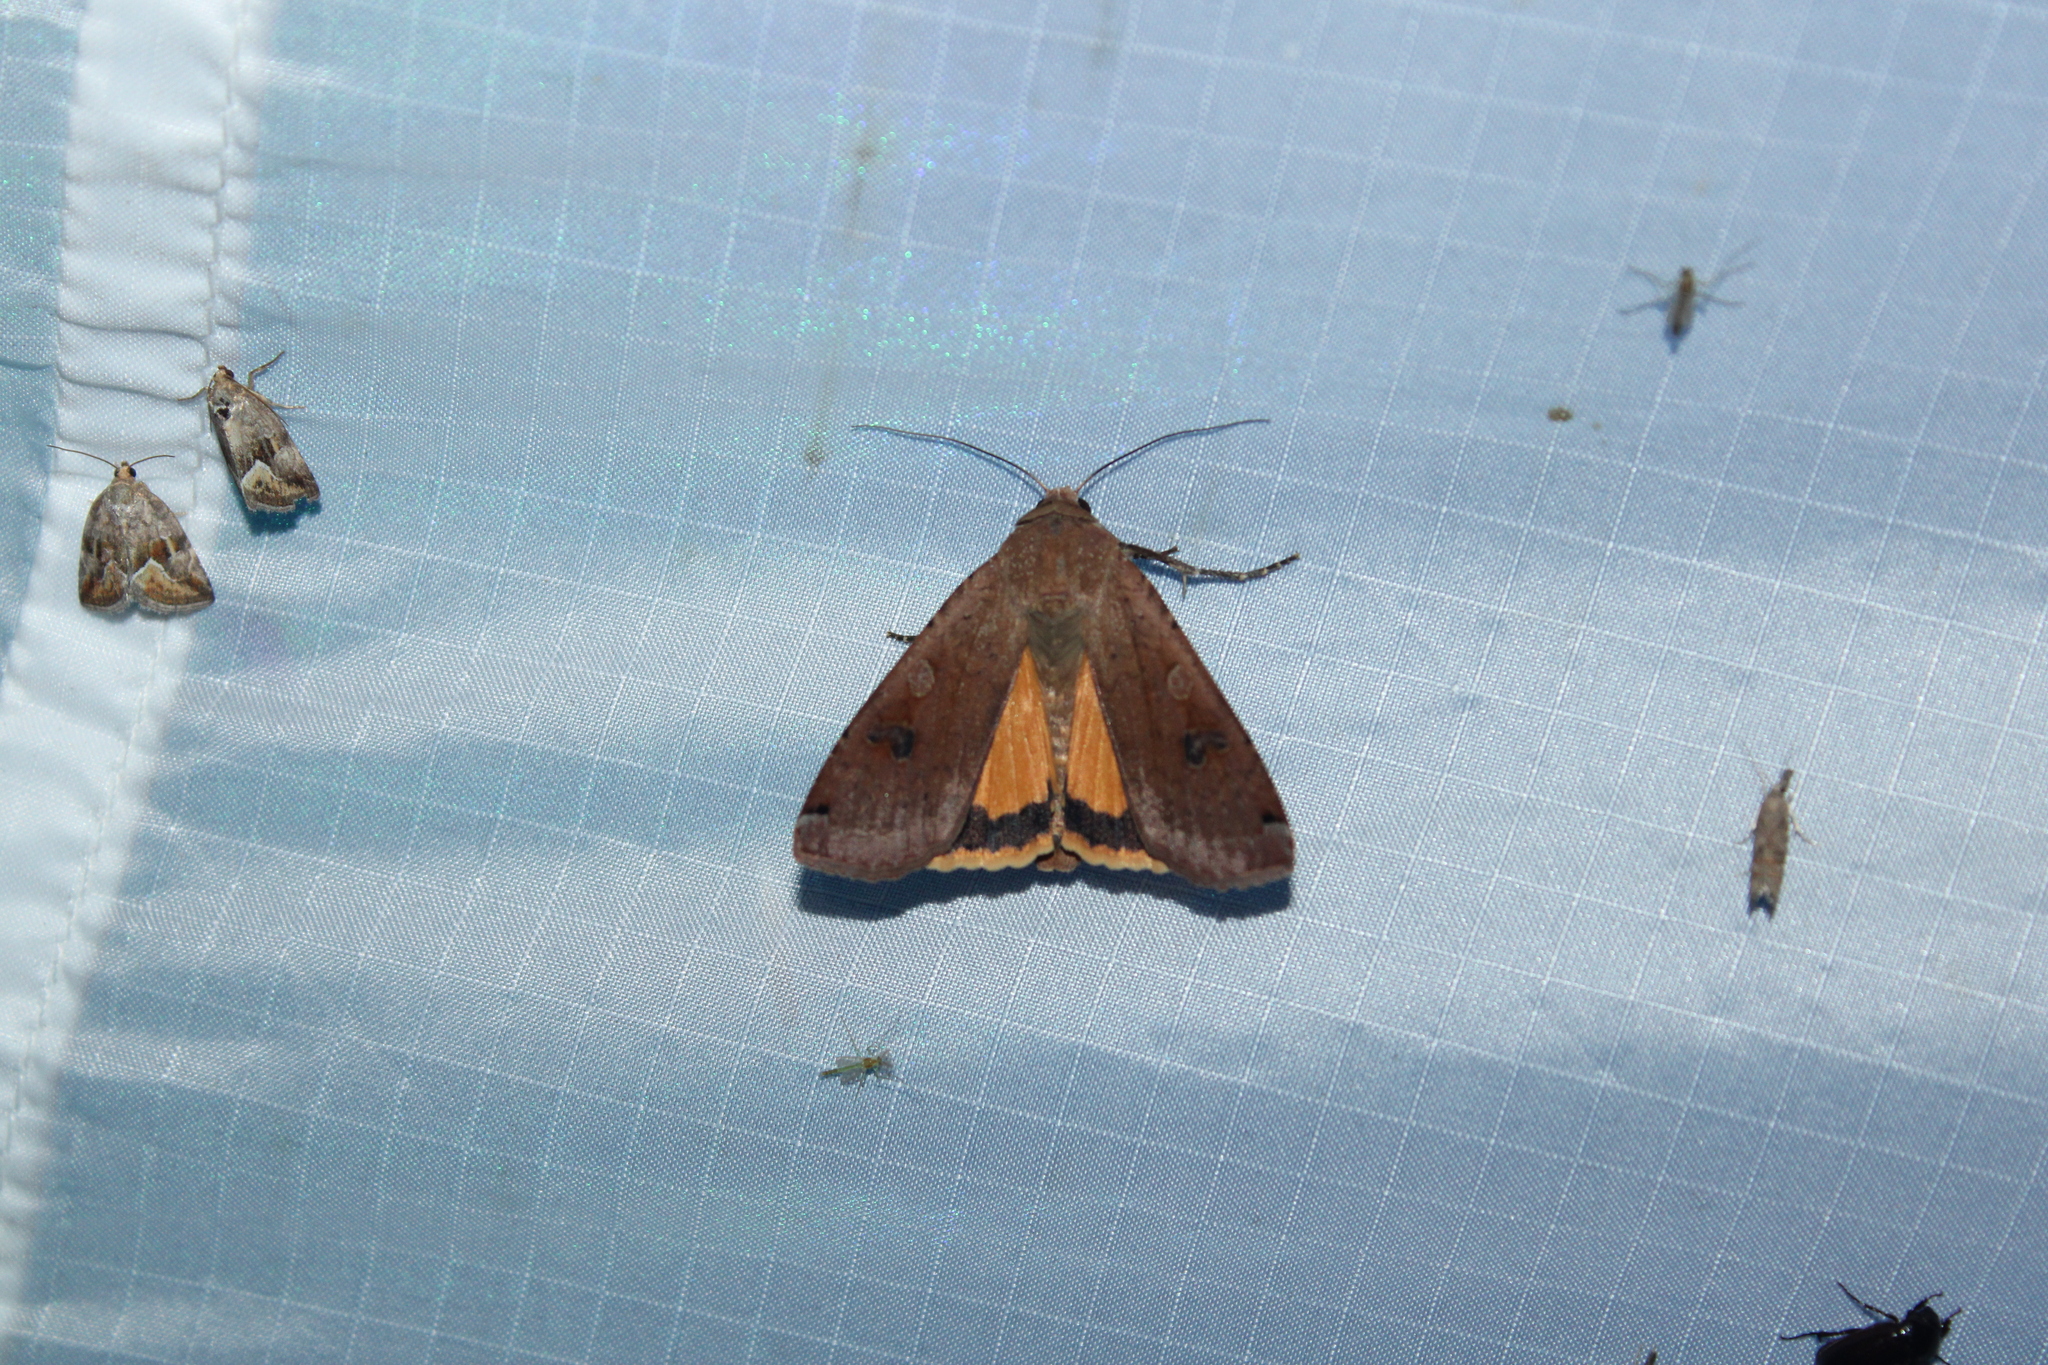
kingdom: Animalia
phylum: Arthropoda
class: Insecta
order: Lepidoptera
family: Noctuidae
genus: Noctua
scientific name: Noctua pronuba
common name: Large yellow underwing
